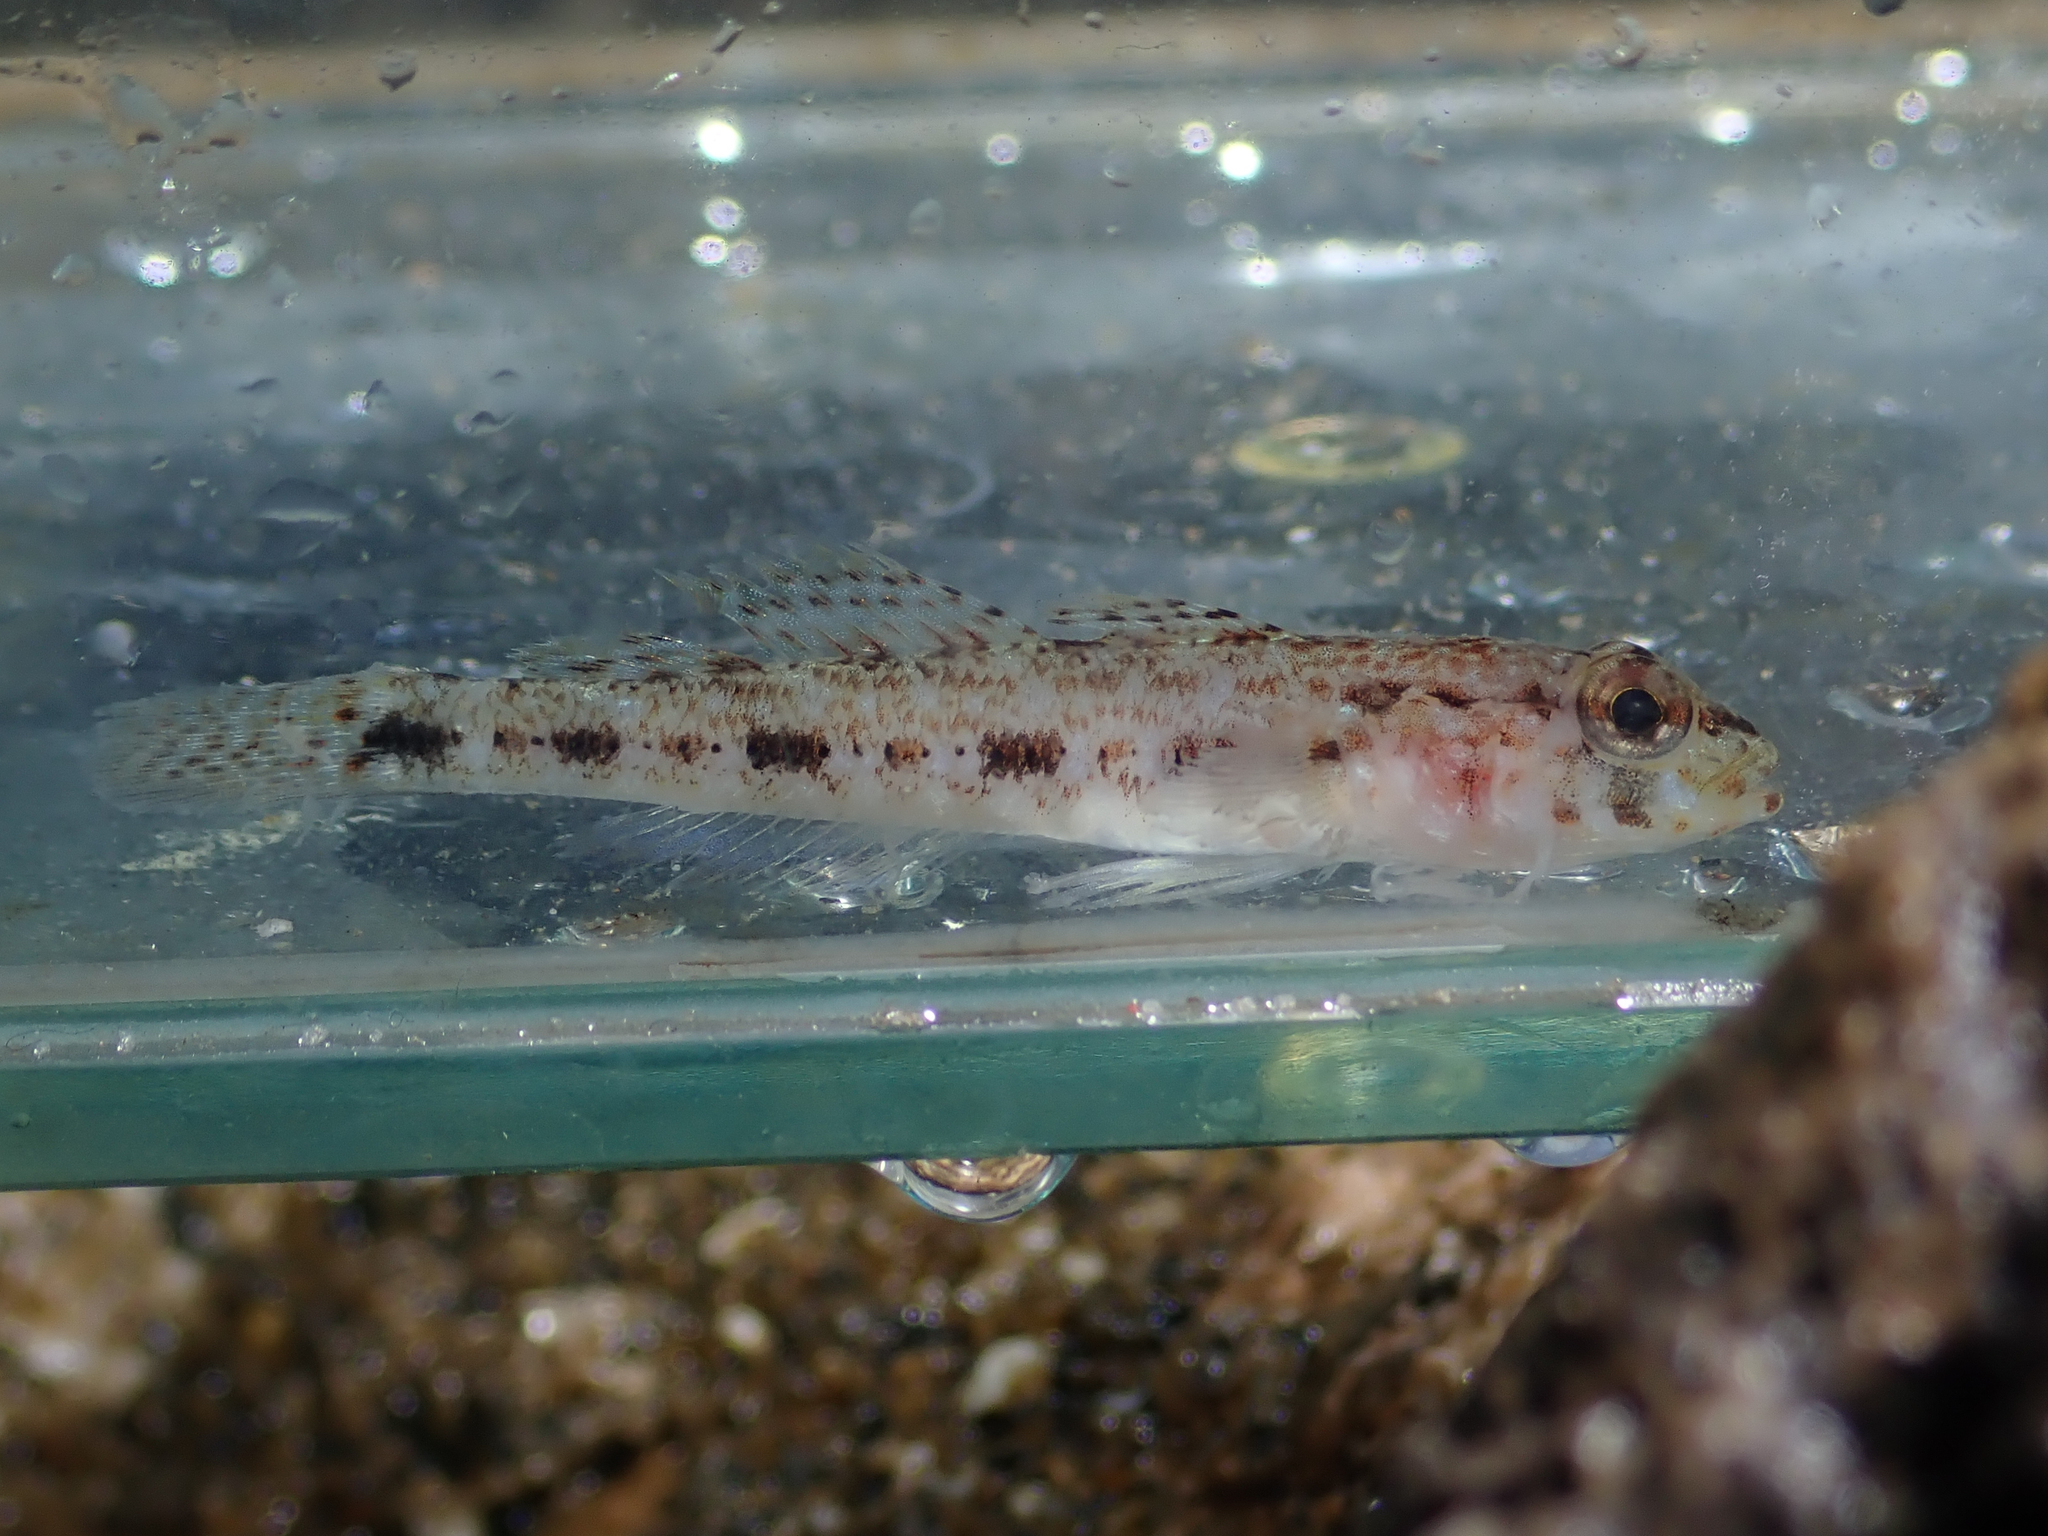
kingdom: Animalia
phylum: Chordata
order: Perciformes
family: Gobiidae
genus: Gobius
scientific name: Gobius geniporus
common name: Slender goby
